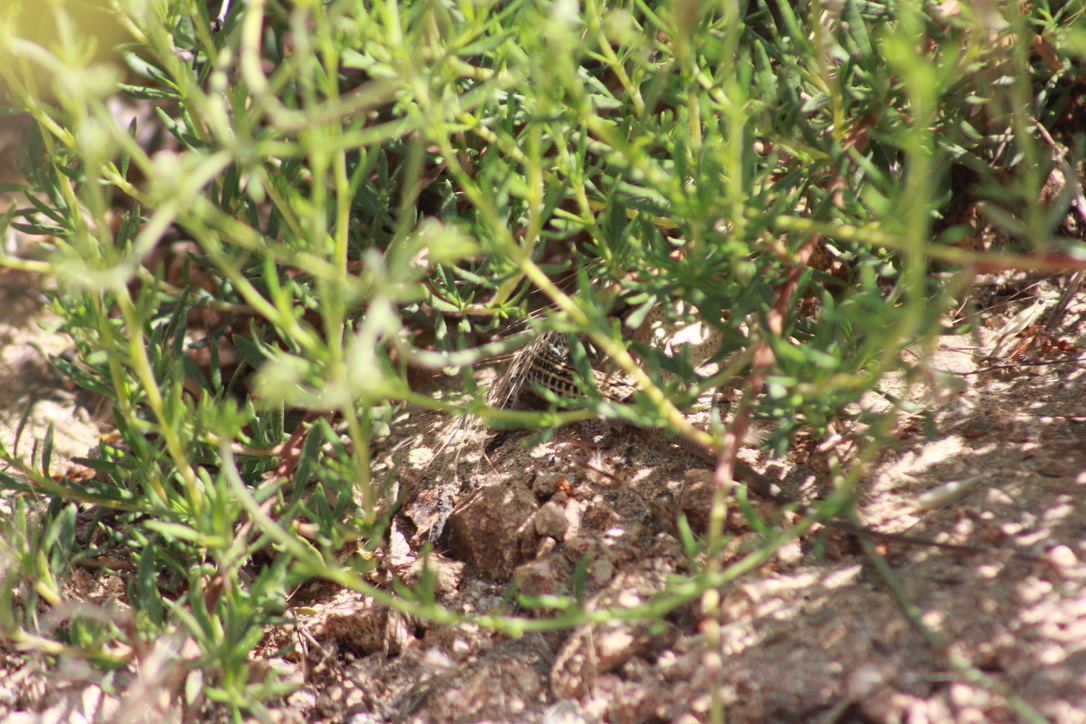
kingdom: Animalia
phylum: Chordata
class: Squamata
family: Teiidae
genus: Aspidoscelis
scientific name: Aspidoscelis tigris
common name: Tiger whiptail
